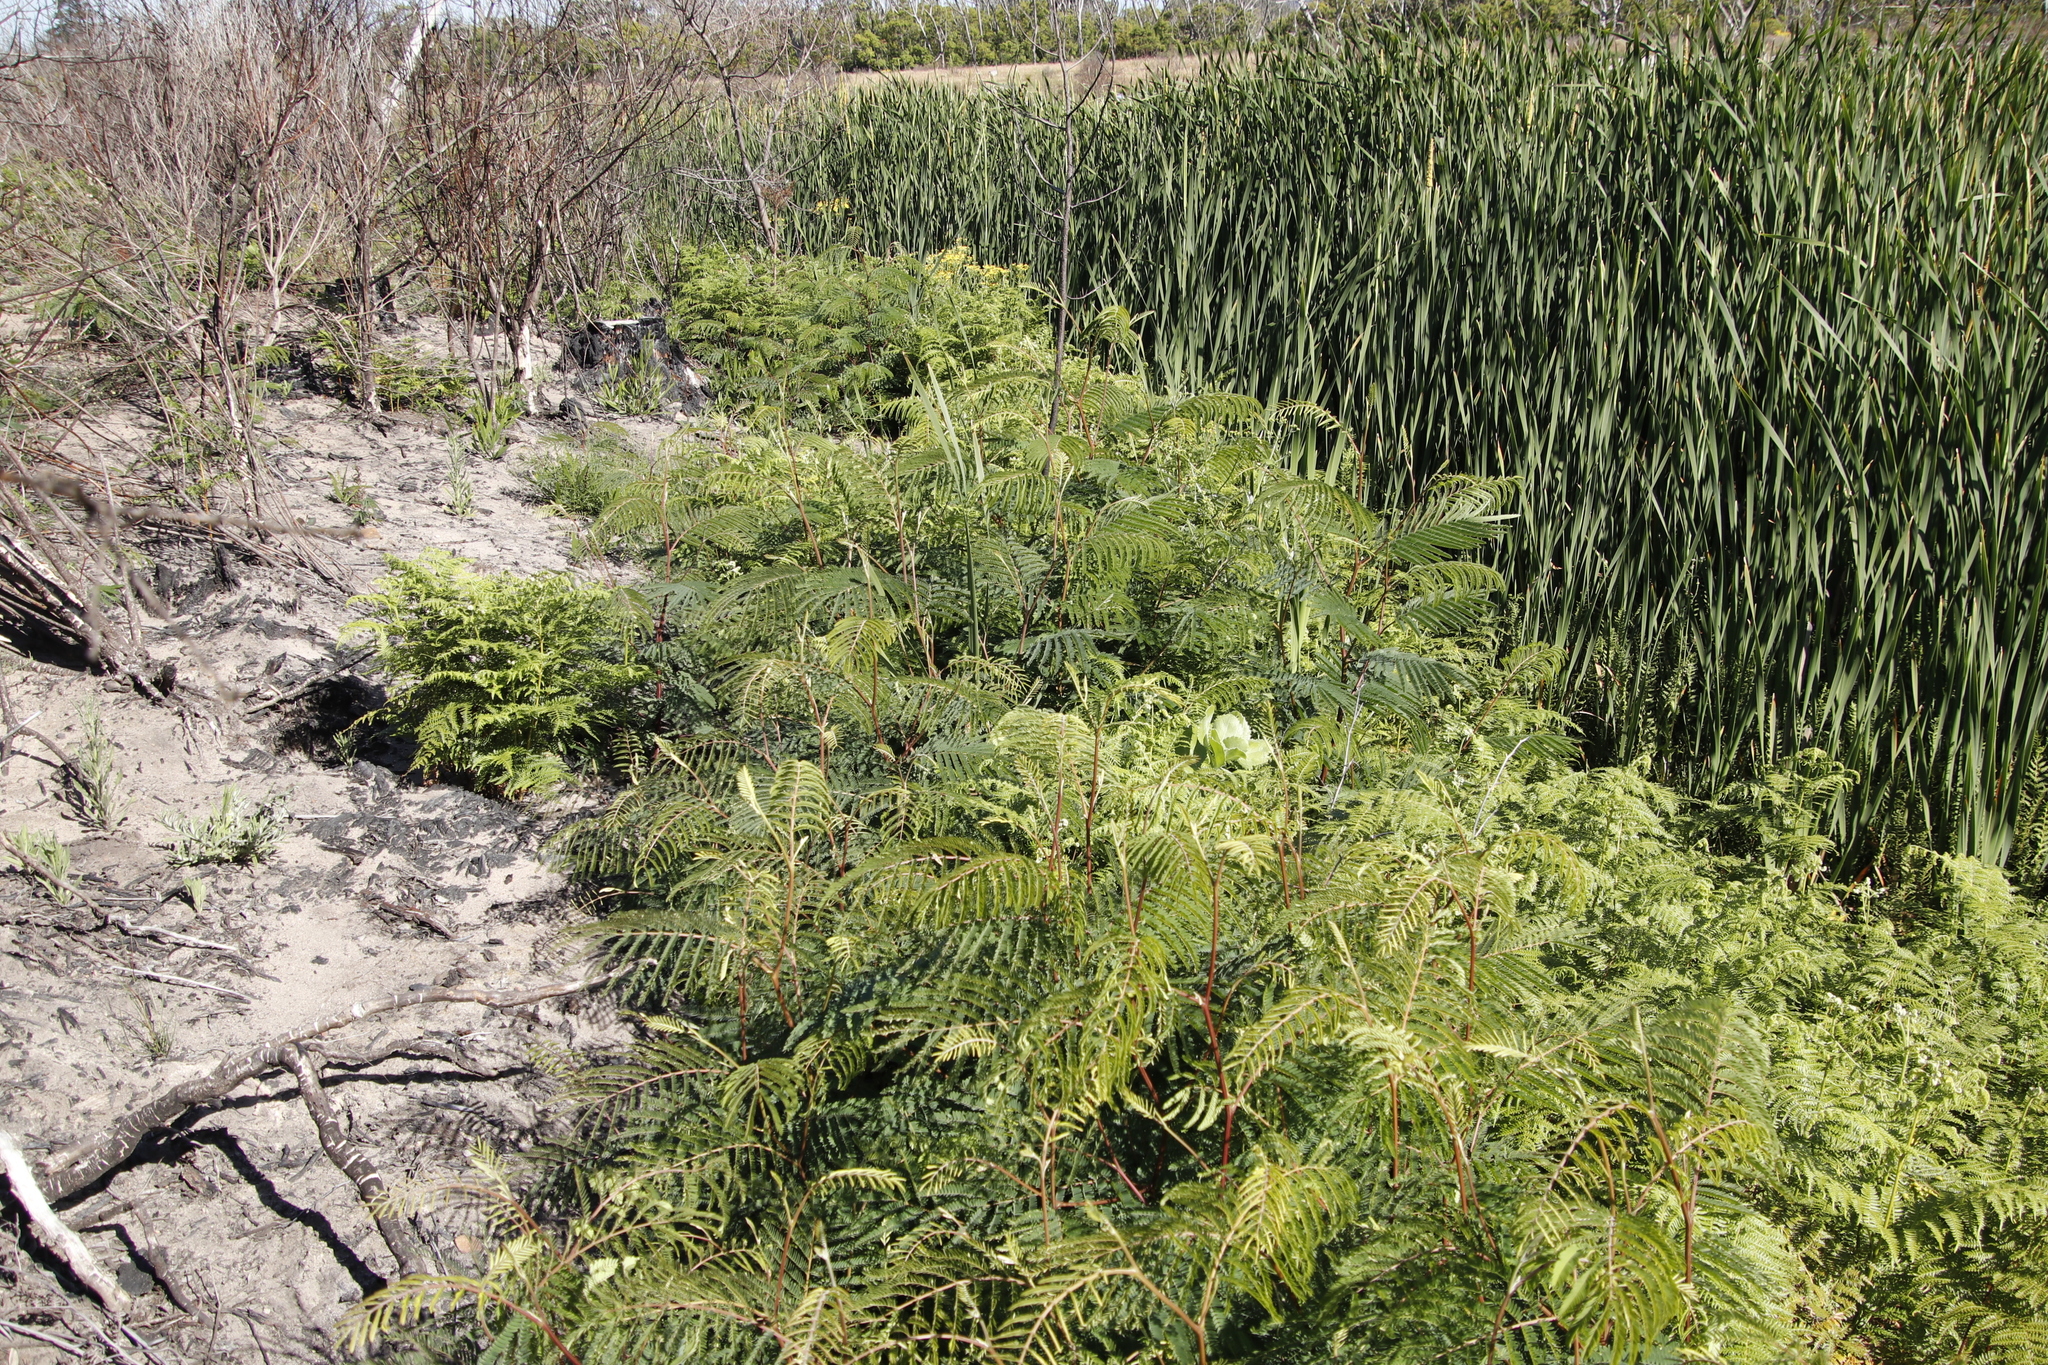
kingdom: Plantae
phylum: Tracheophyta
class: Magnoliopsida
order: Fabales
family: Fabaceae
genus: Paraserianthes
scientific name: Paraserianthes lophantha
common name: Plume albizia
